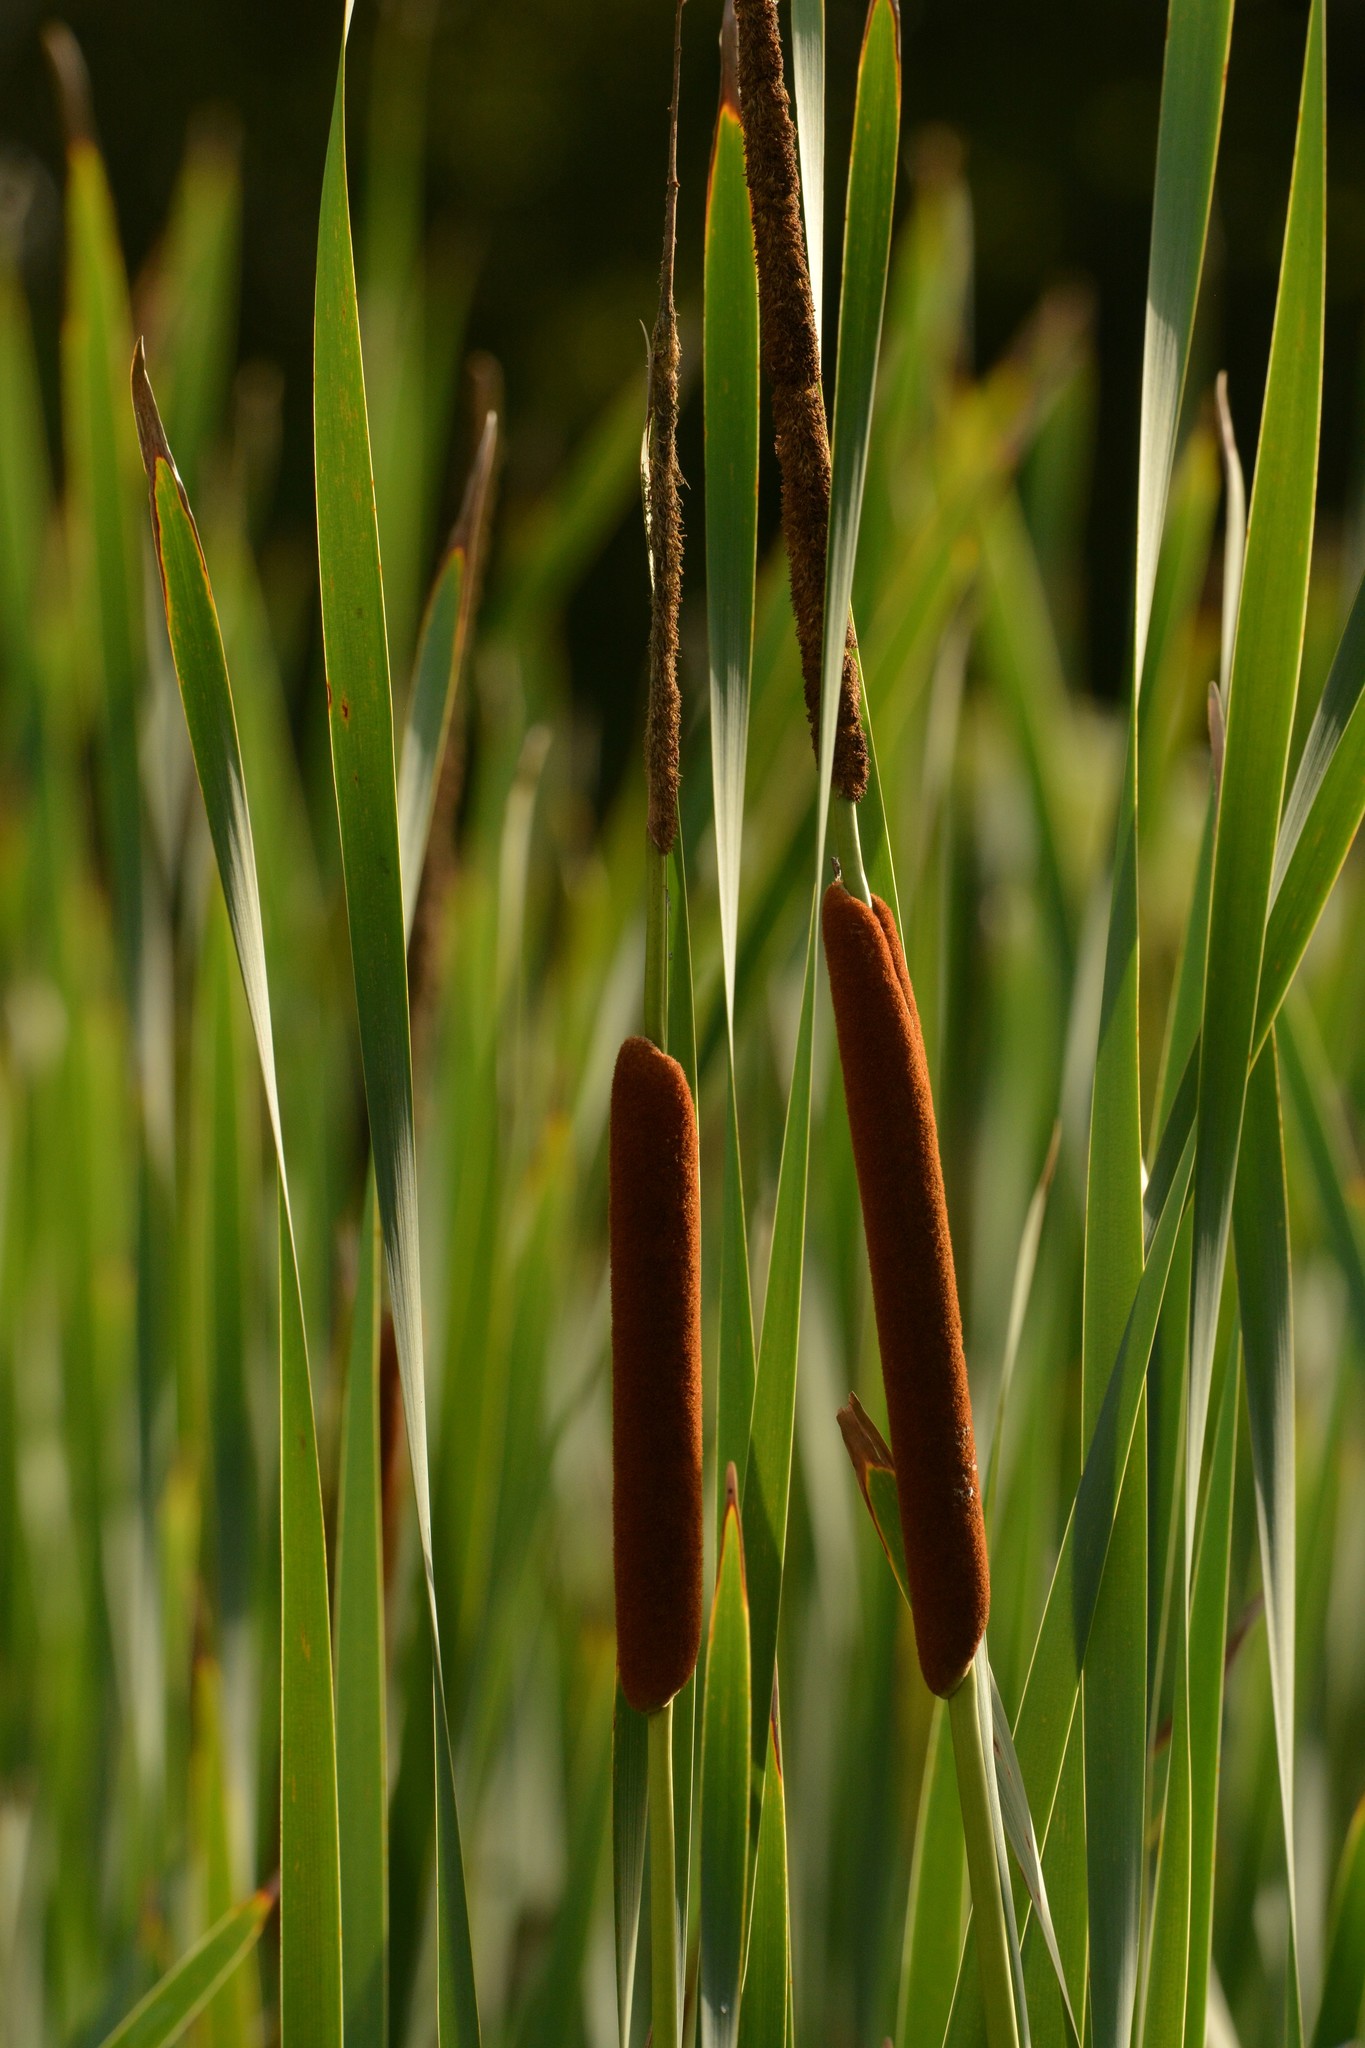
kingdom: Plantae
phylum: Tracheophyta
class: Liliopsida
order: Poales
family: Typhaceae
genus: Typha
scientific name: Typha orientalis
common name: Bullrush
